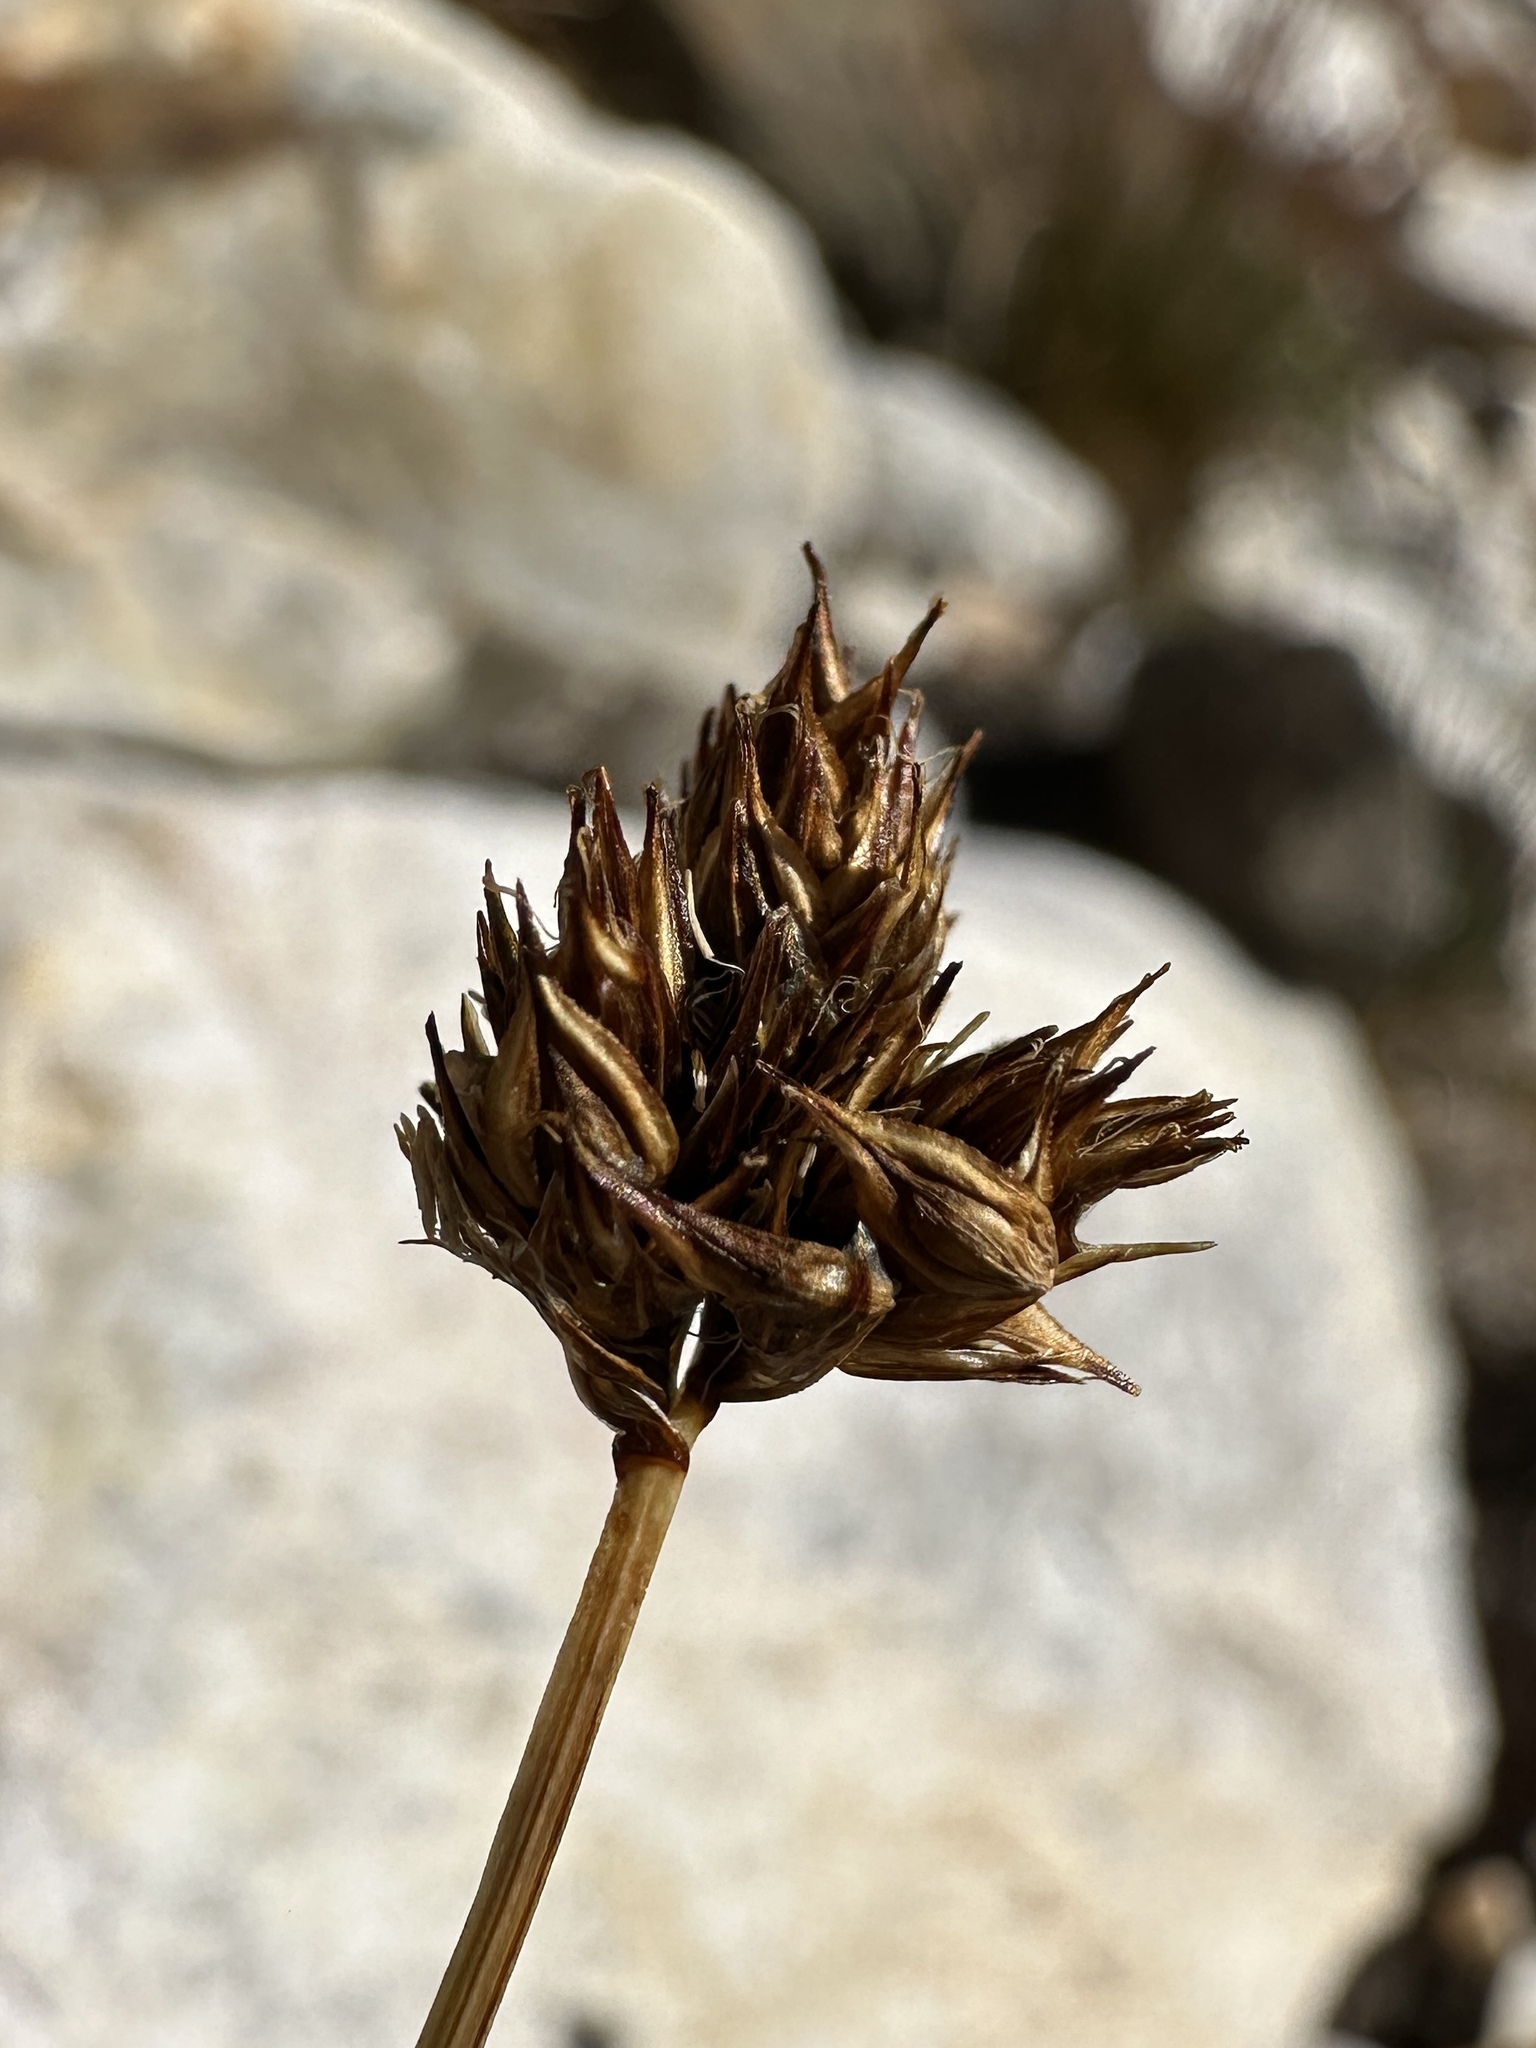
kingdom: Plantae
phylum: Tracheophyta
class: Liliopsida
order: Poales
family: Cyperaceae
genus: Carex
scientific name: Carex haydeniana
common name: Cloud sedge
